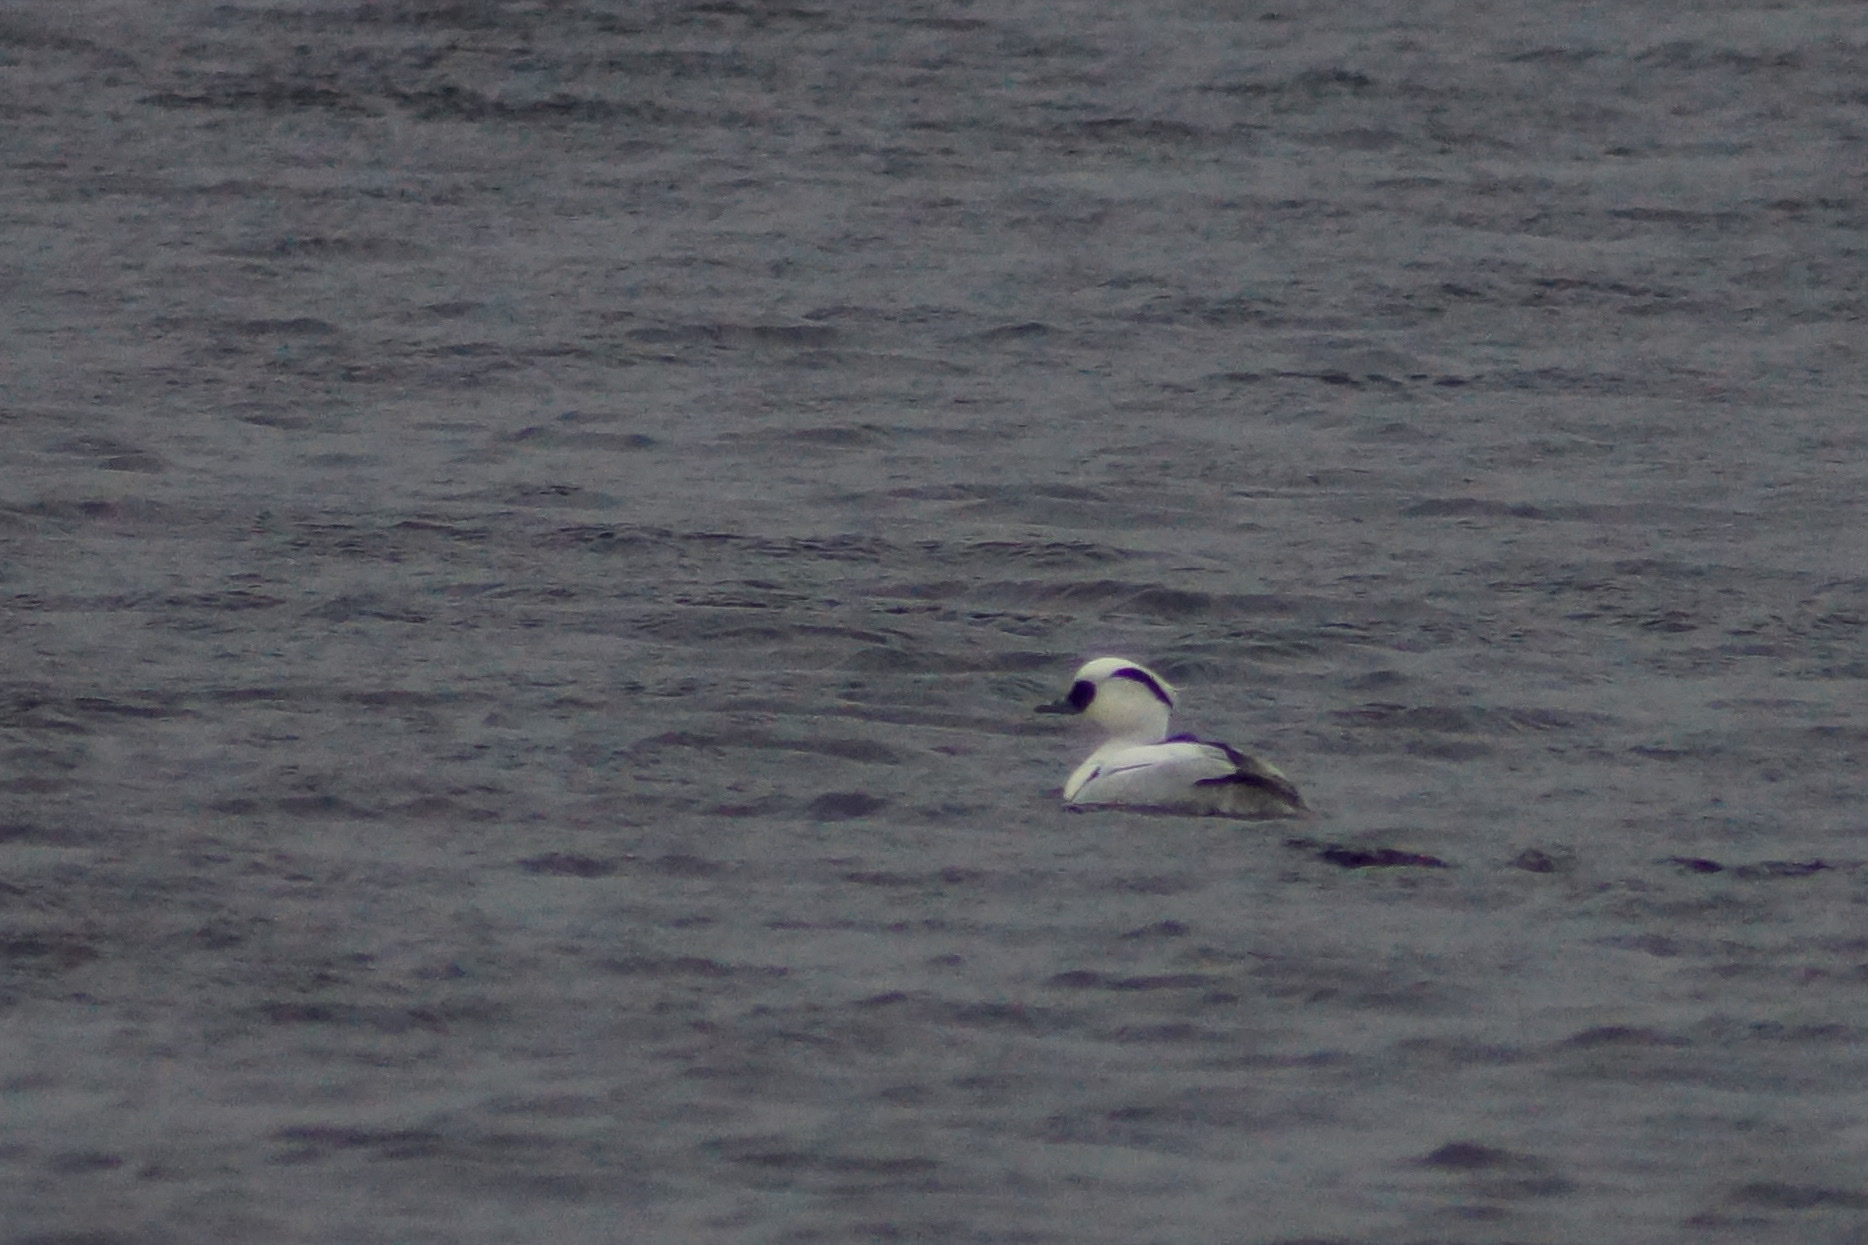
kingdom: Animalia
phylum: Chordata
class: Aves
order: Anseriformes
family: Anatidae
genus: Mergellus
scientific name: Mergellus albellus
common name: Smew
